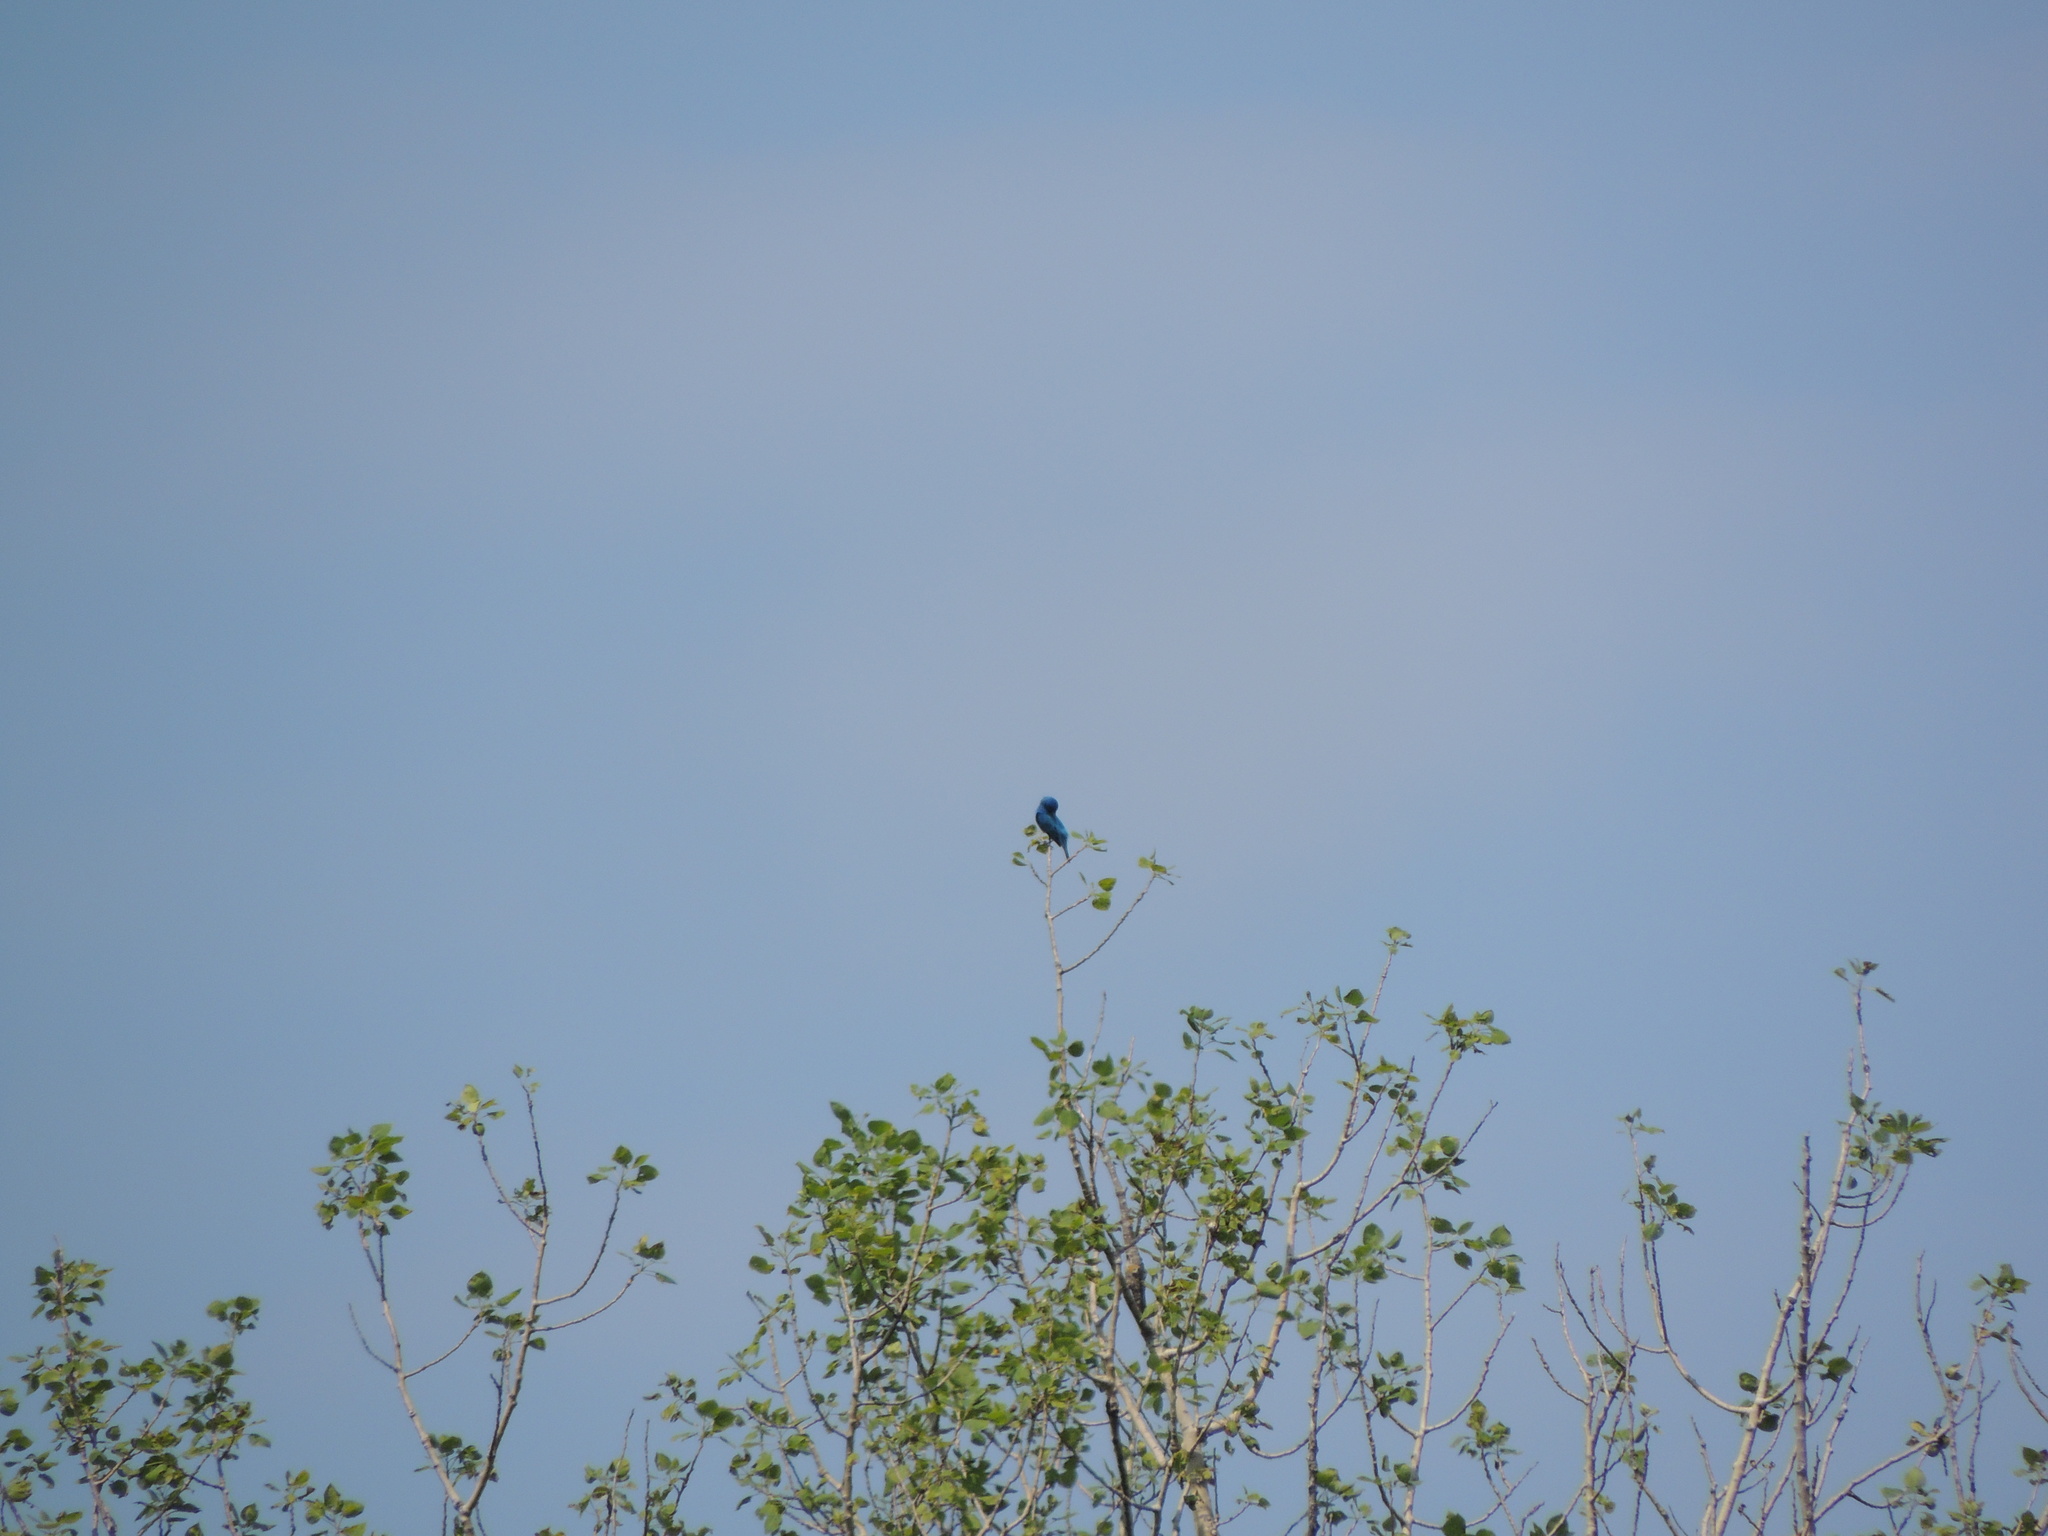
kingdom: Animalia
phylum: Chordata
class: Aves
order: Passeriformes
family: Cardinalidae
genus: Passerina
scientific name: Passerina cyanea
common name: Indigo bunting
